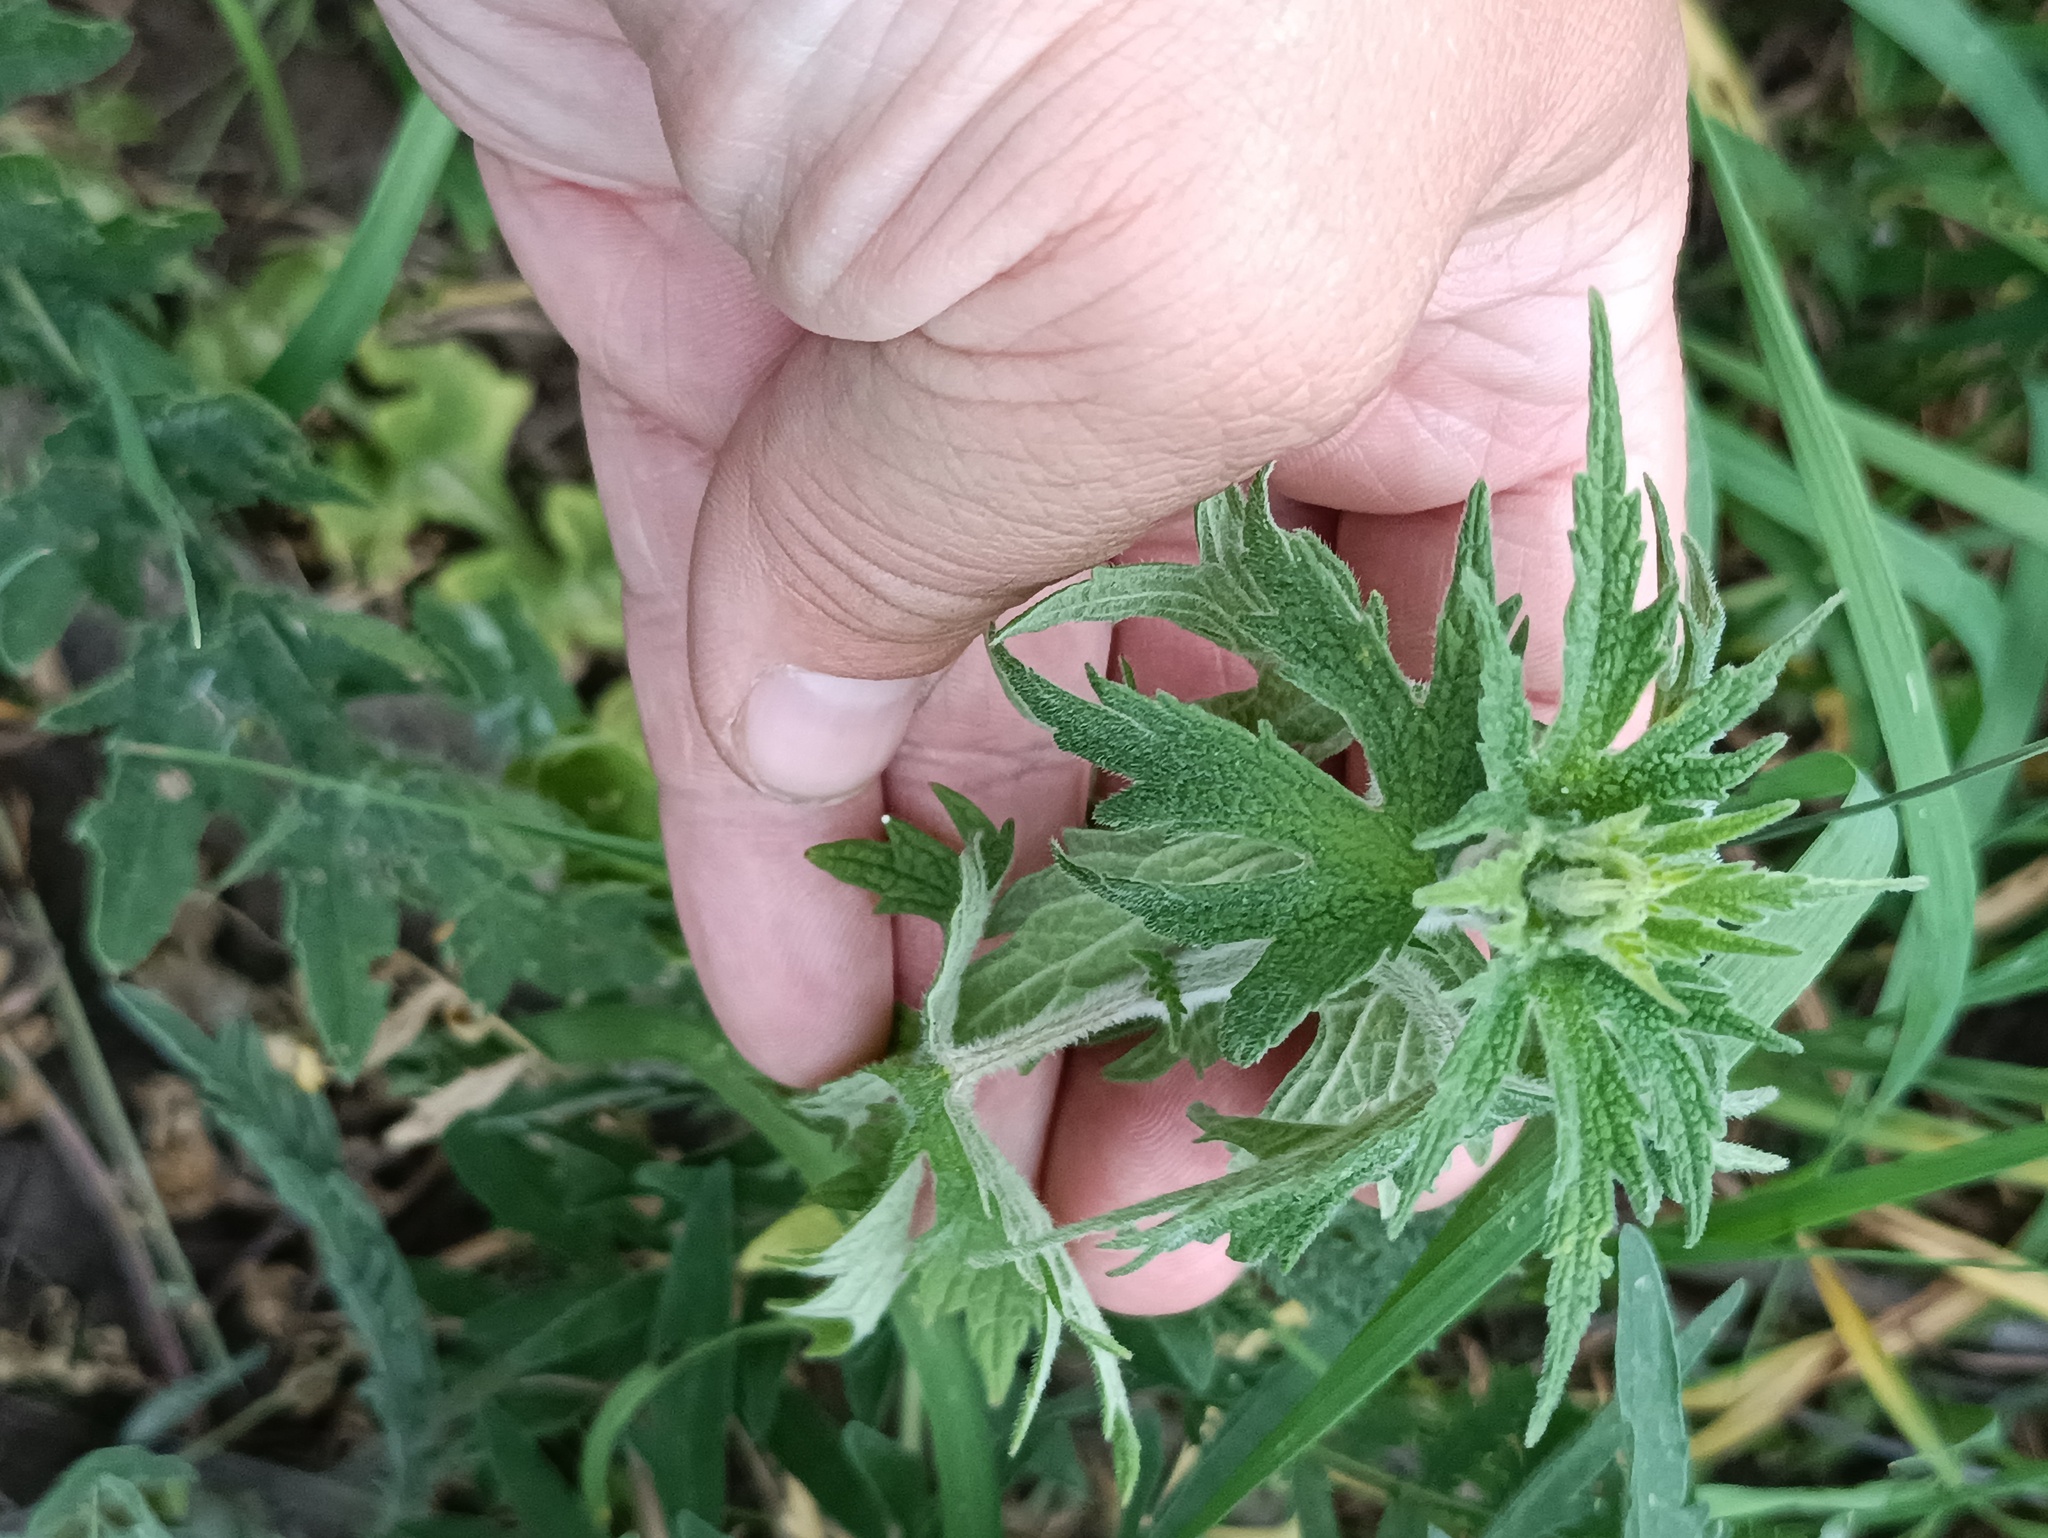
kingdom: Plantae
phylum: Tracheophyta
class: Magnoliopsida
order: Lamiales
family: Lamiaceae
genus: Leonurus
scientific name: Leonurus quinquelobatus
